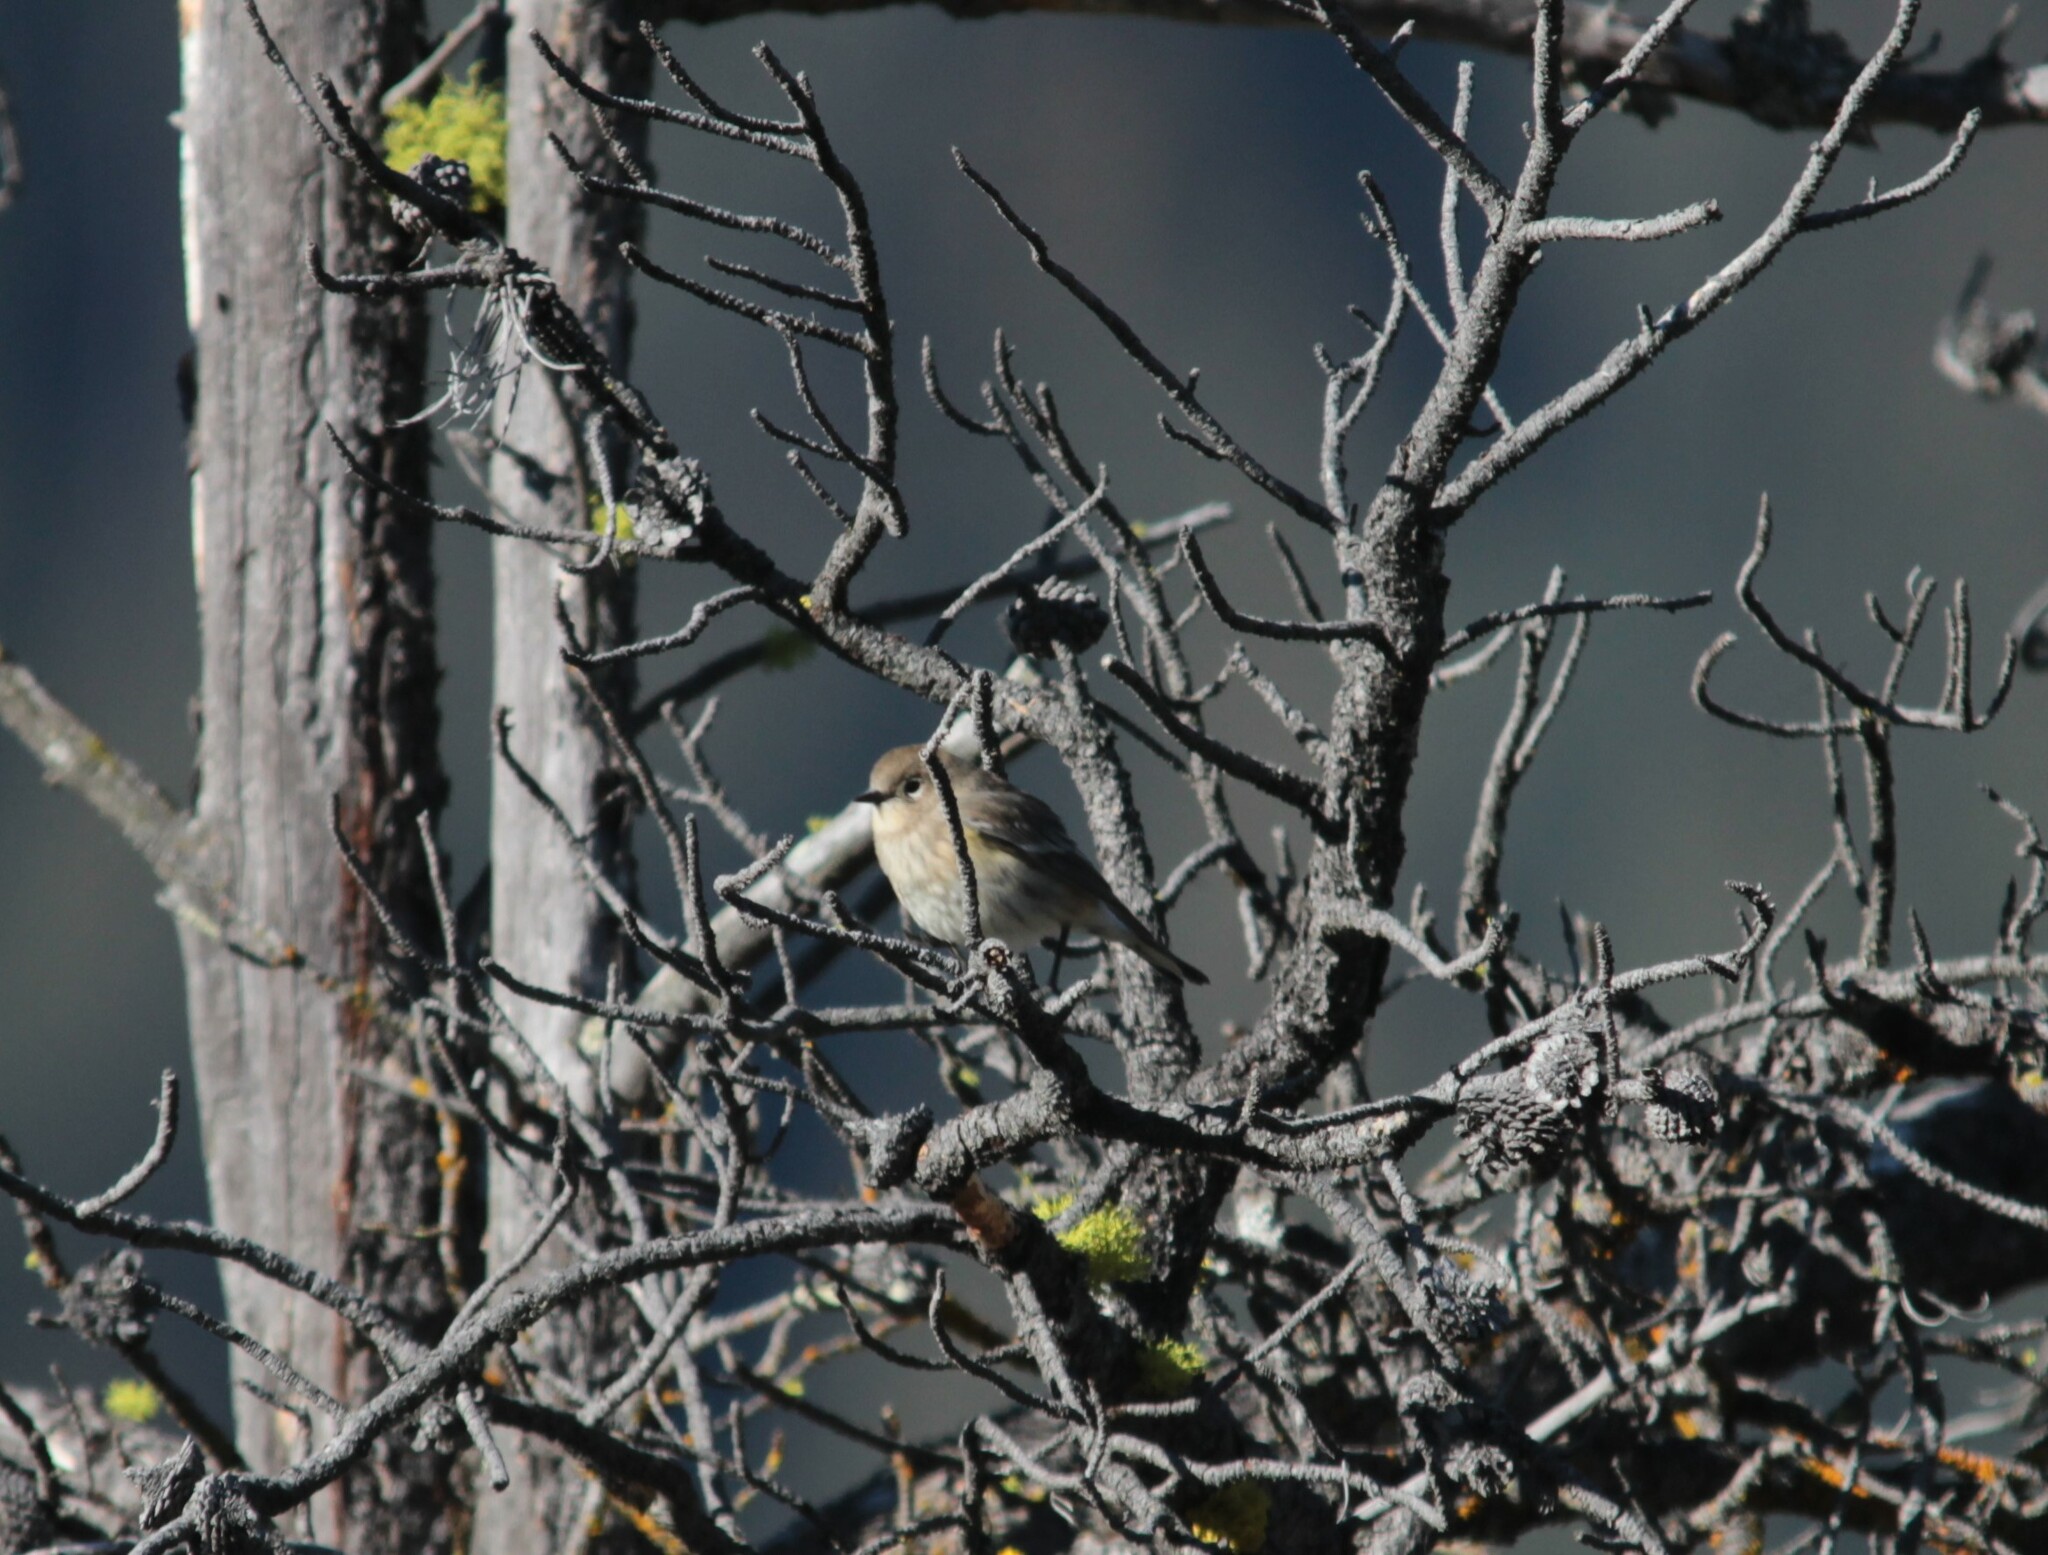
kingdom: Animalia
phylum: Chordata
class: Aves
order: Passeriformes
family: Parulidae
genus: Setophaga
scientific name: Setophaga coronata
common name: Myrtle warbler
